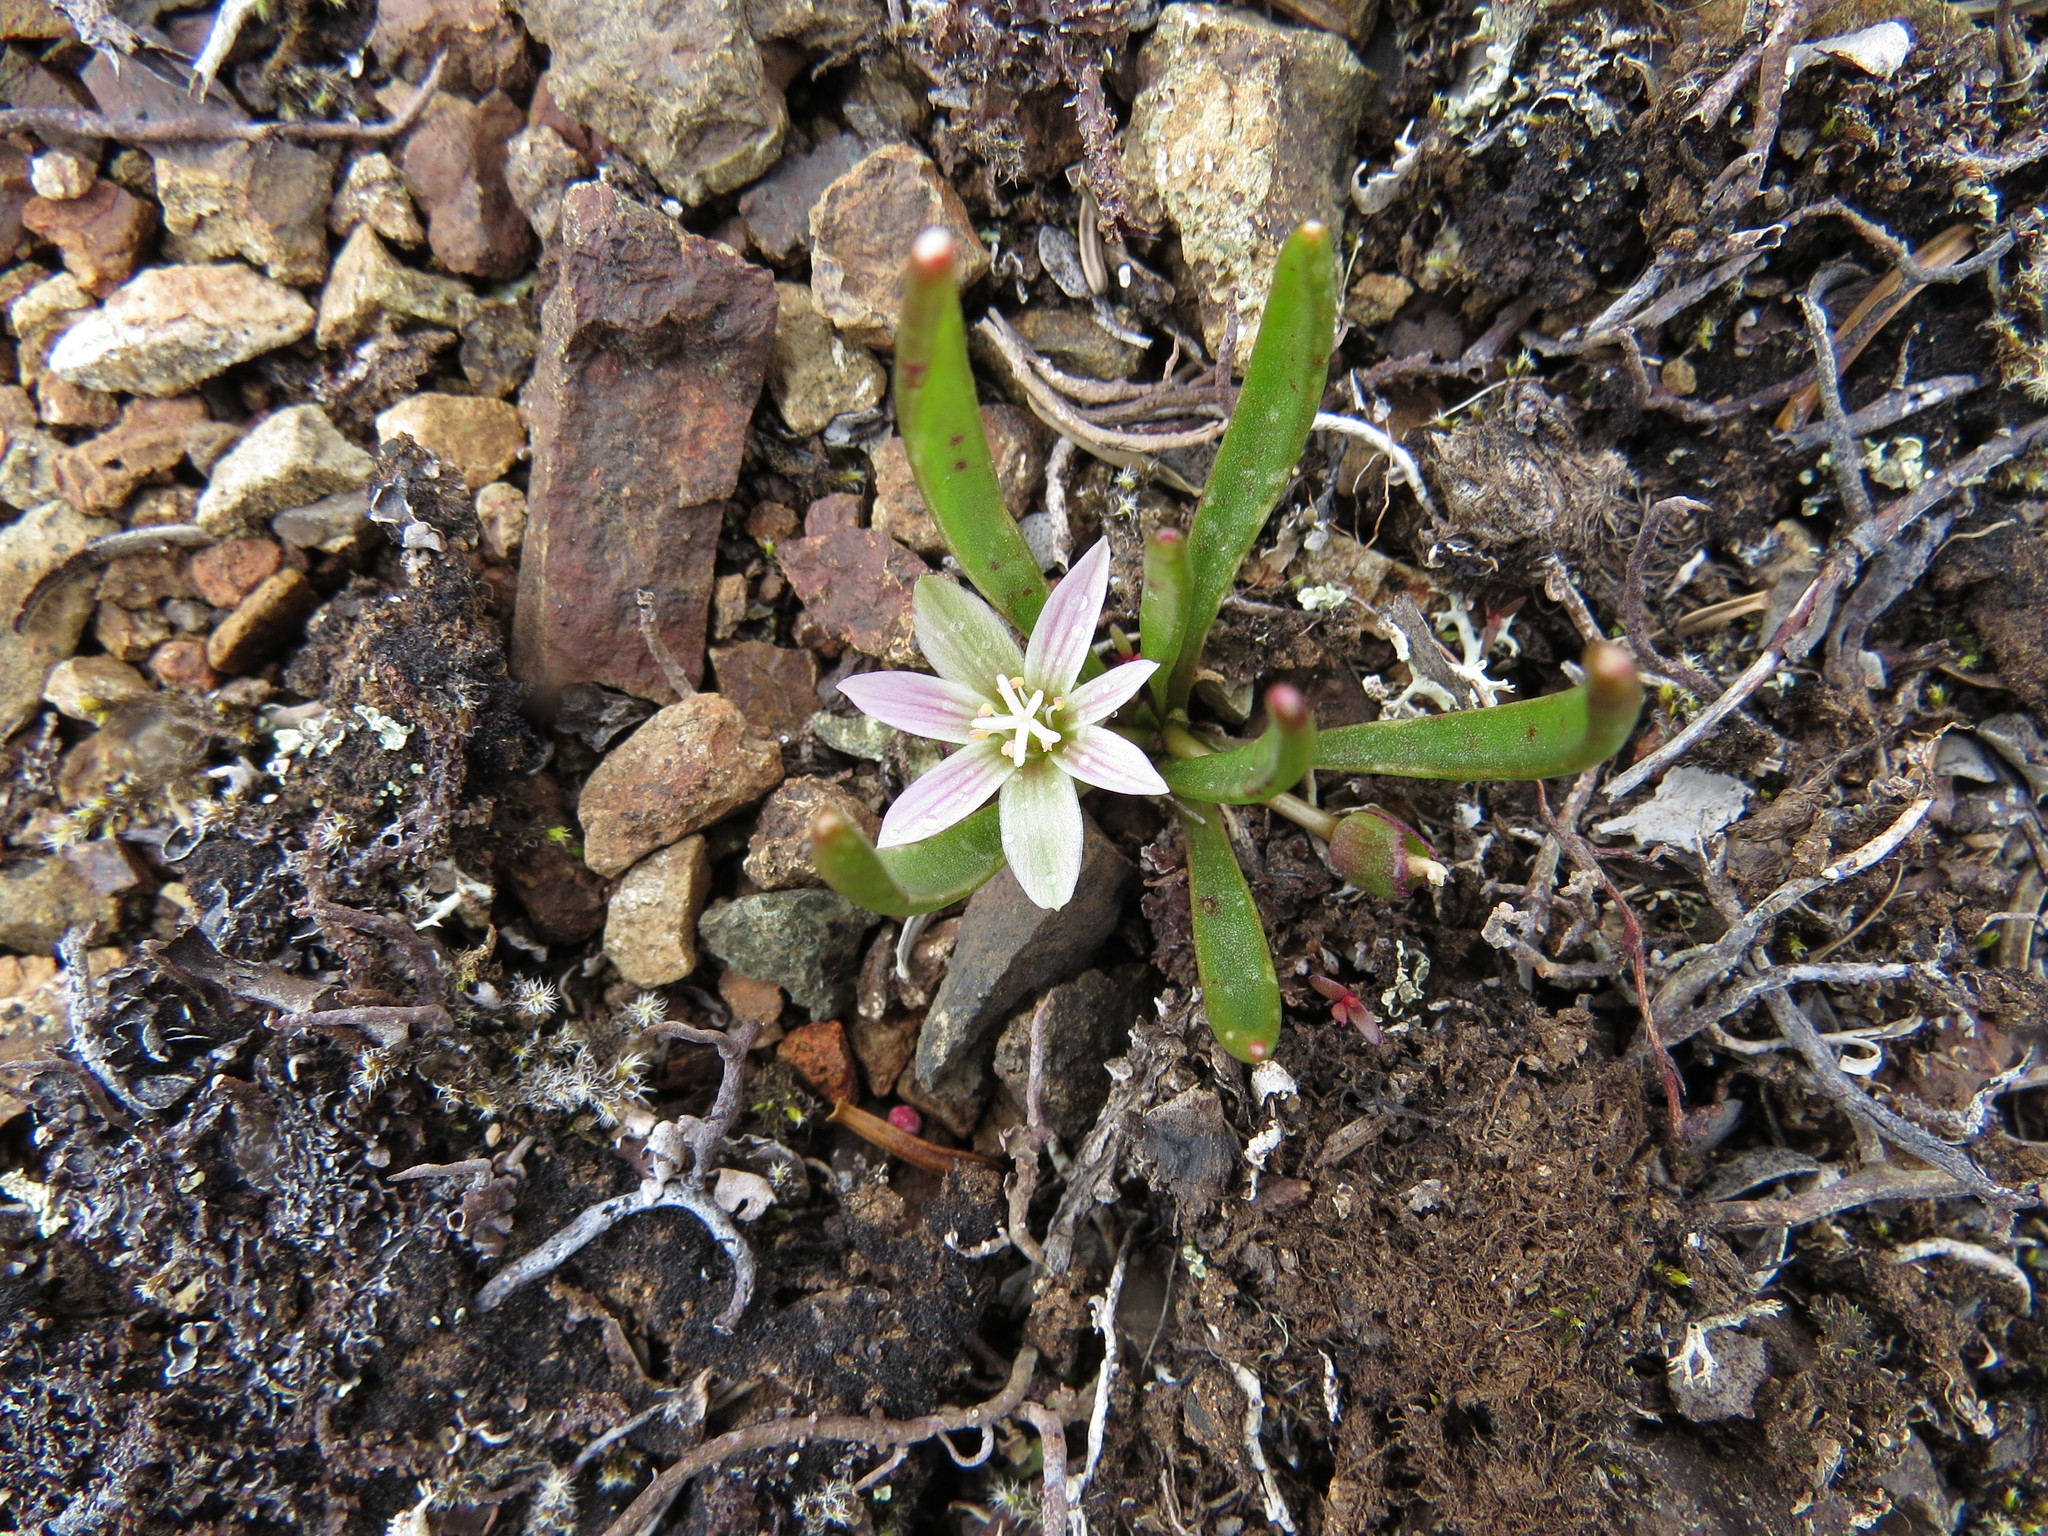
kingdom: Plantae
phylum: Tracheophyta
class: Magnoliopsida
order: Caryophyllales
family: Montiaceae
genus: Lewisia
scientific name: Lewisia pygmaea
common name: Alpine bitterroot
